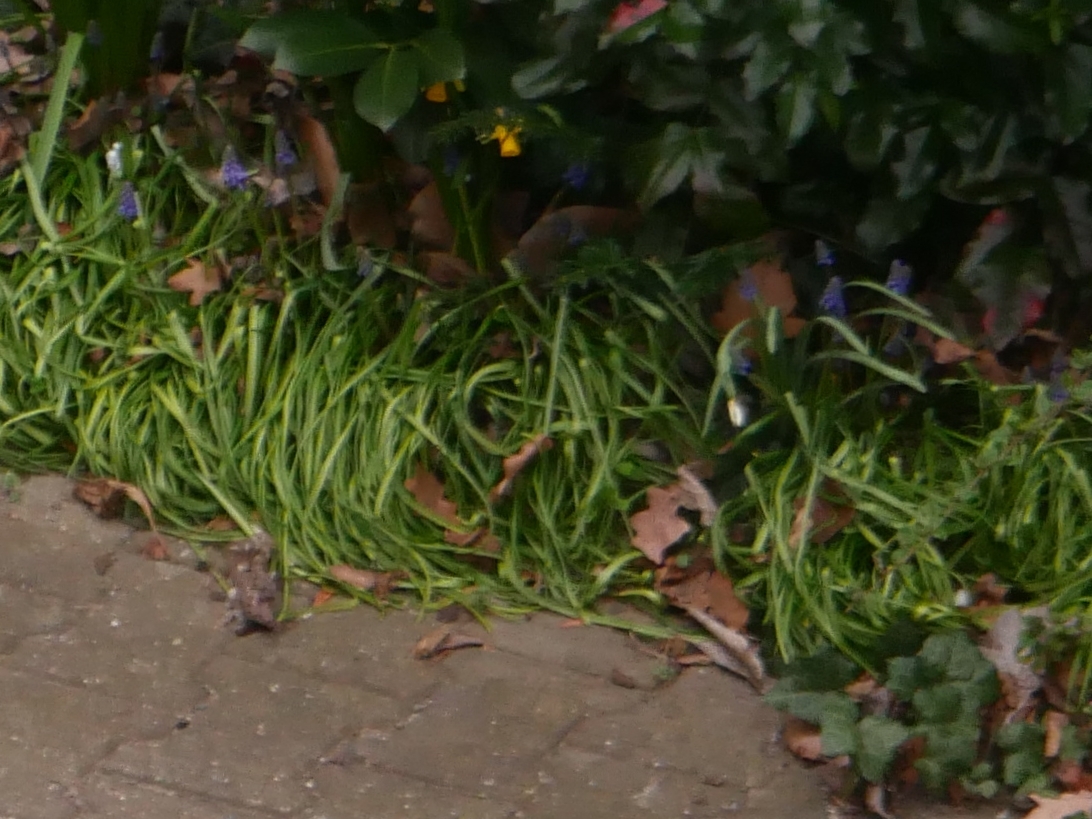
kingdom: Plantae
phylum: Tracheophyta
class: Liliopsida
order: Asparagales
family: Asparagaceae
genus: Muscari
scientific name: Muscari armeniacum
